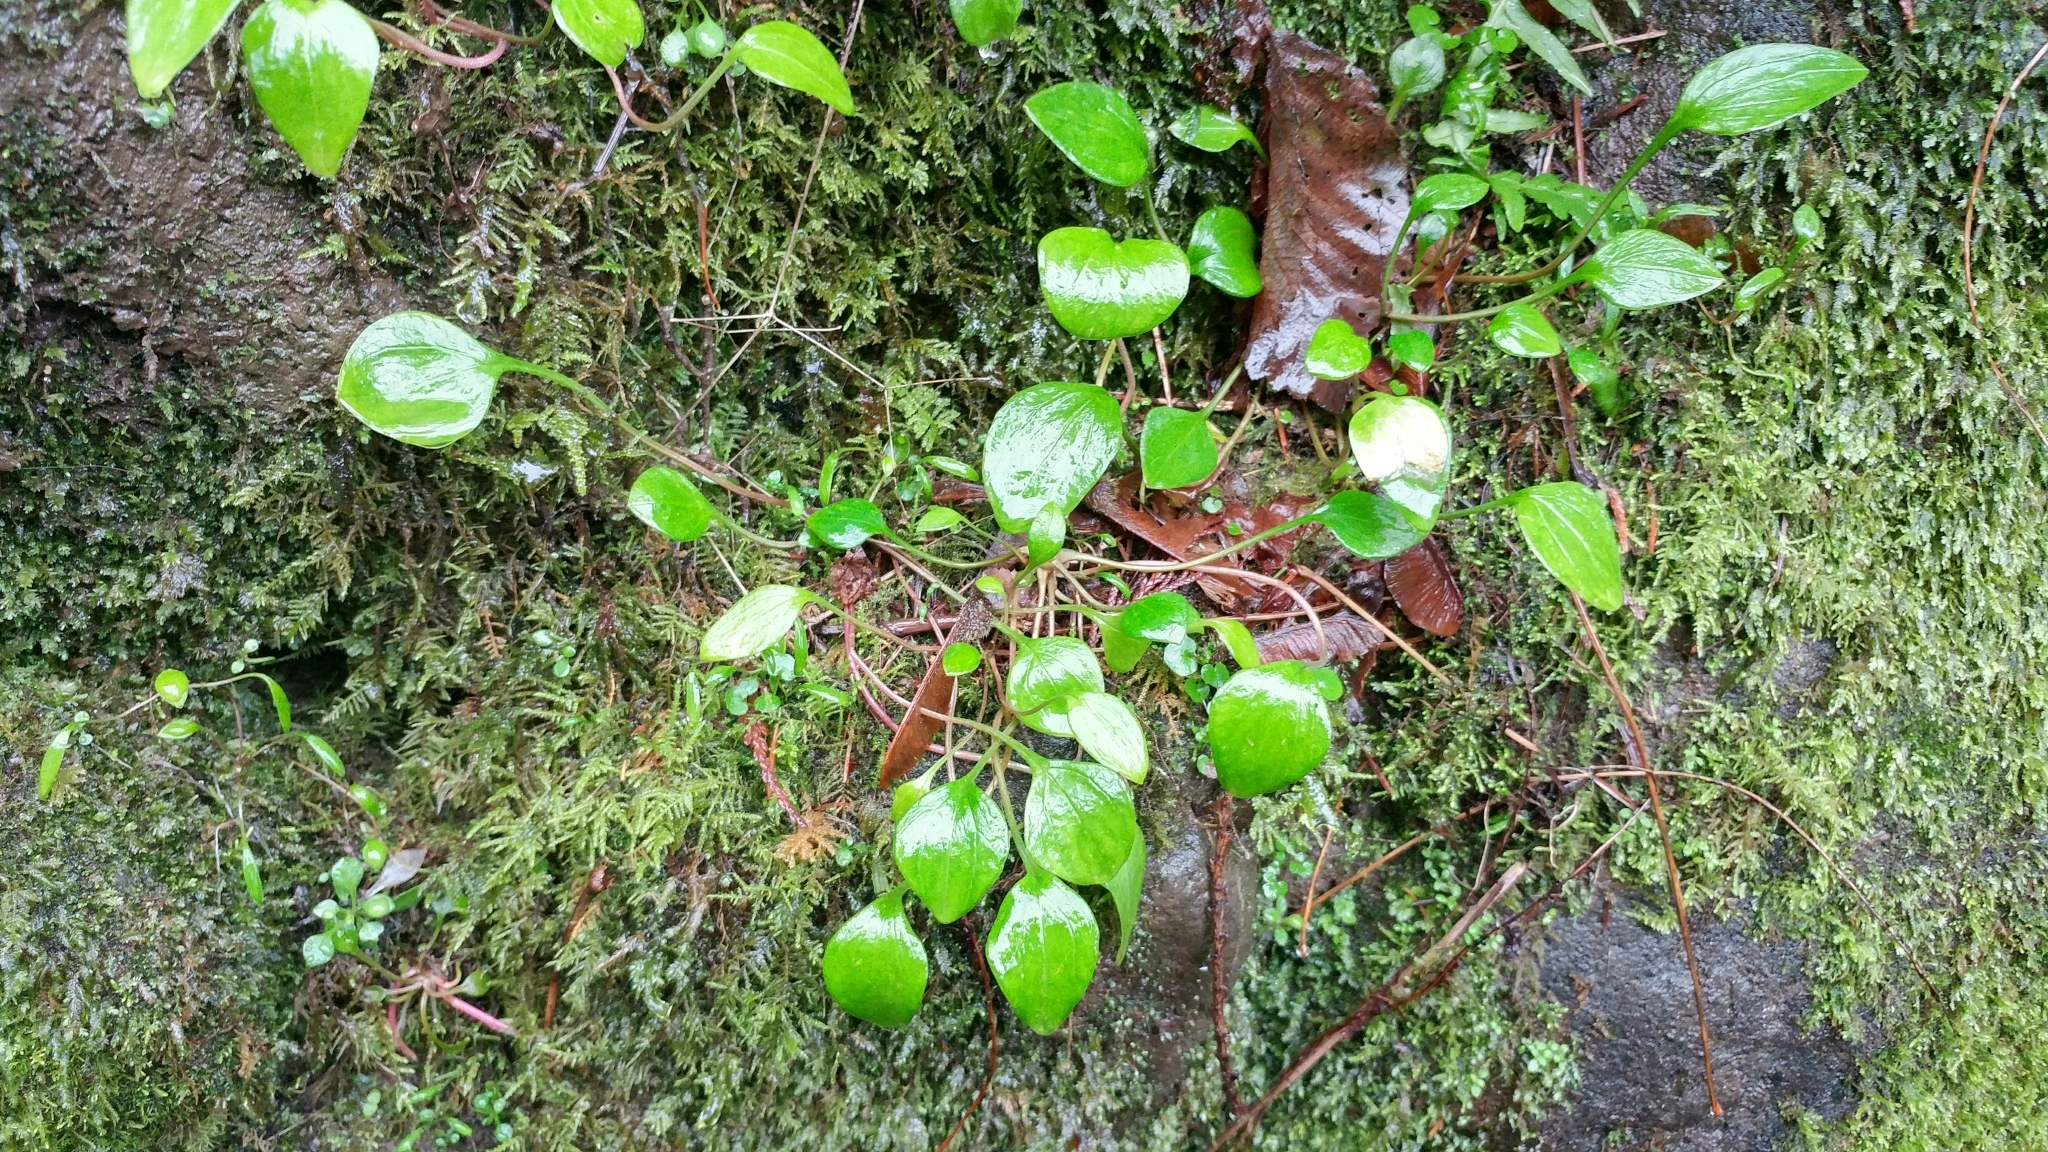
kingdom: Plantae
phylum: Tracheophyta
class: Magnoliopsida
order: Caryophyllales
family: Montiaceae
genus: Claytonia
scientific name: Claytonia sibirica
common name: Pink purslane
